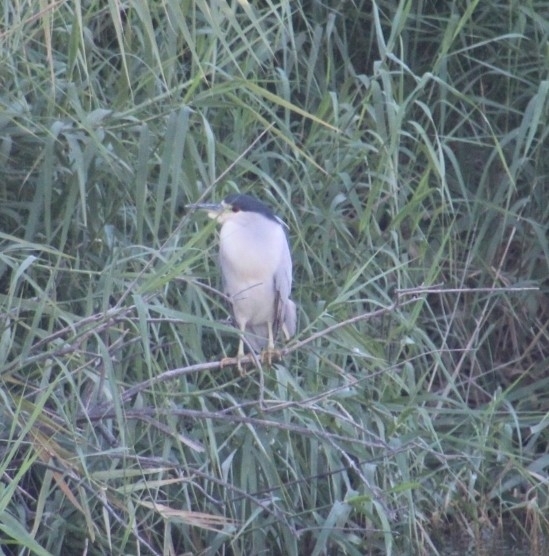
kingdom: Animalia
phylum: Chordata
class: Aves
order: Pelecaniformes
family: Ardeidae
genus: Nycticorax
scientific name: Nycticorax nycticorax
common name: Black-crowned night heron
